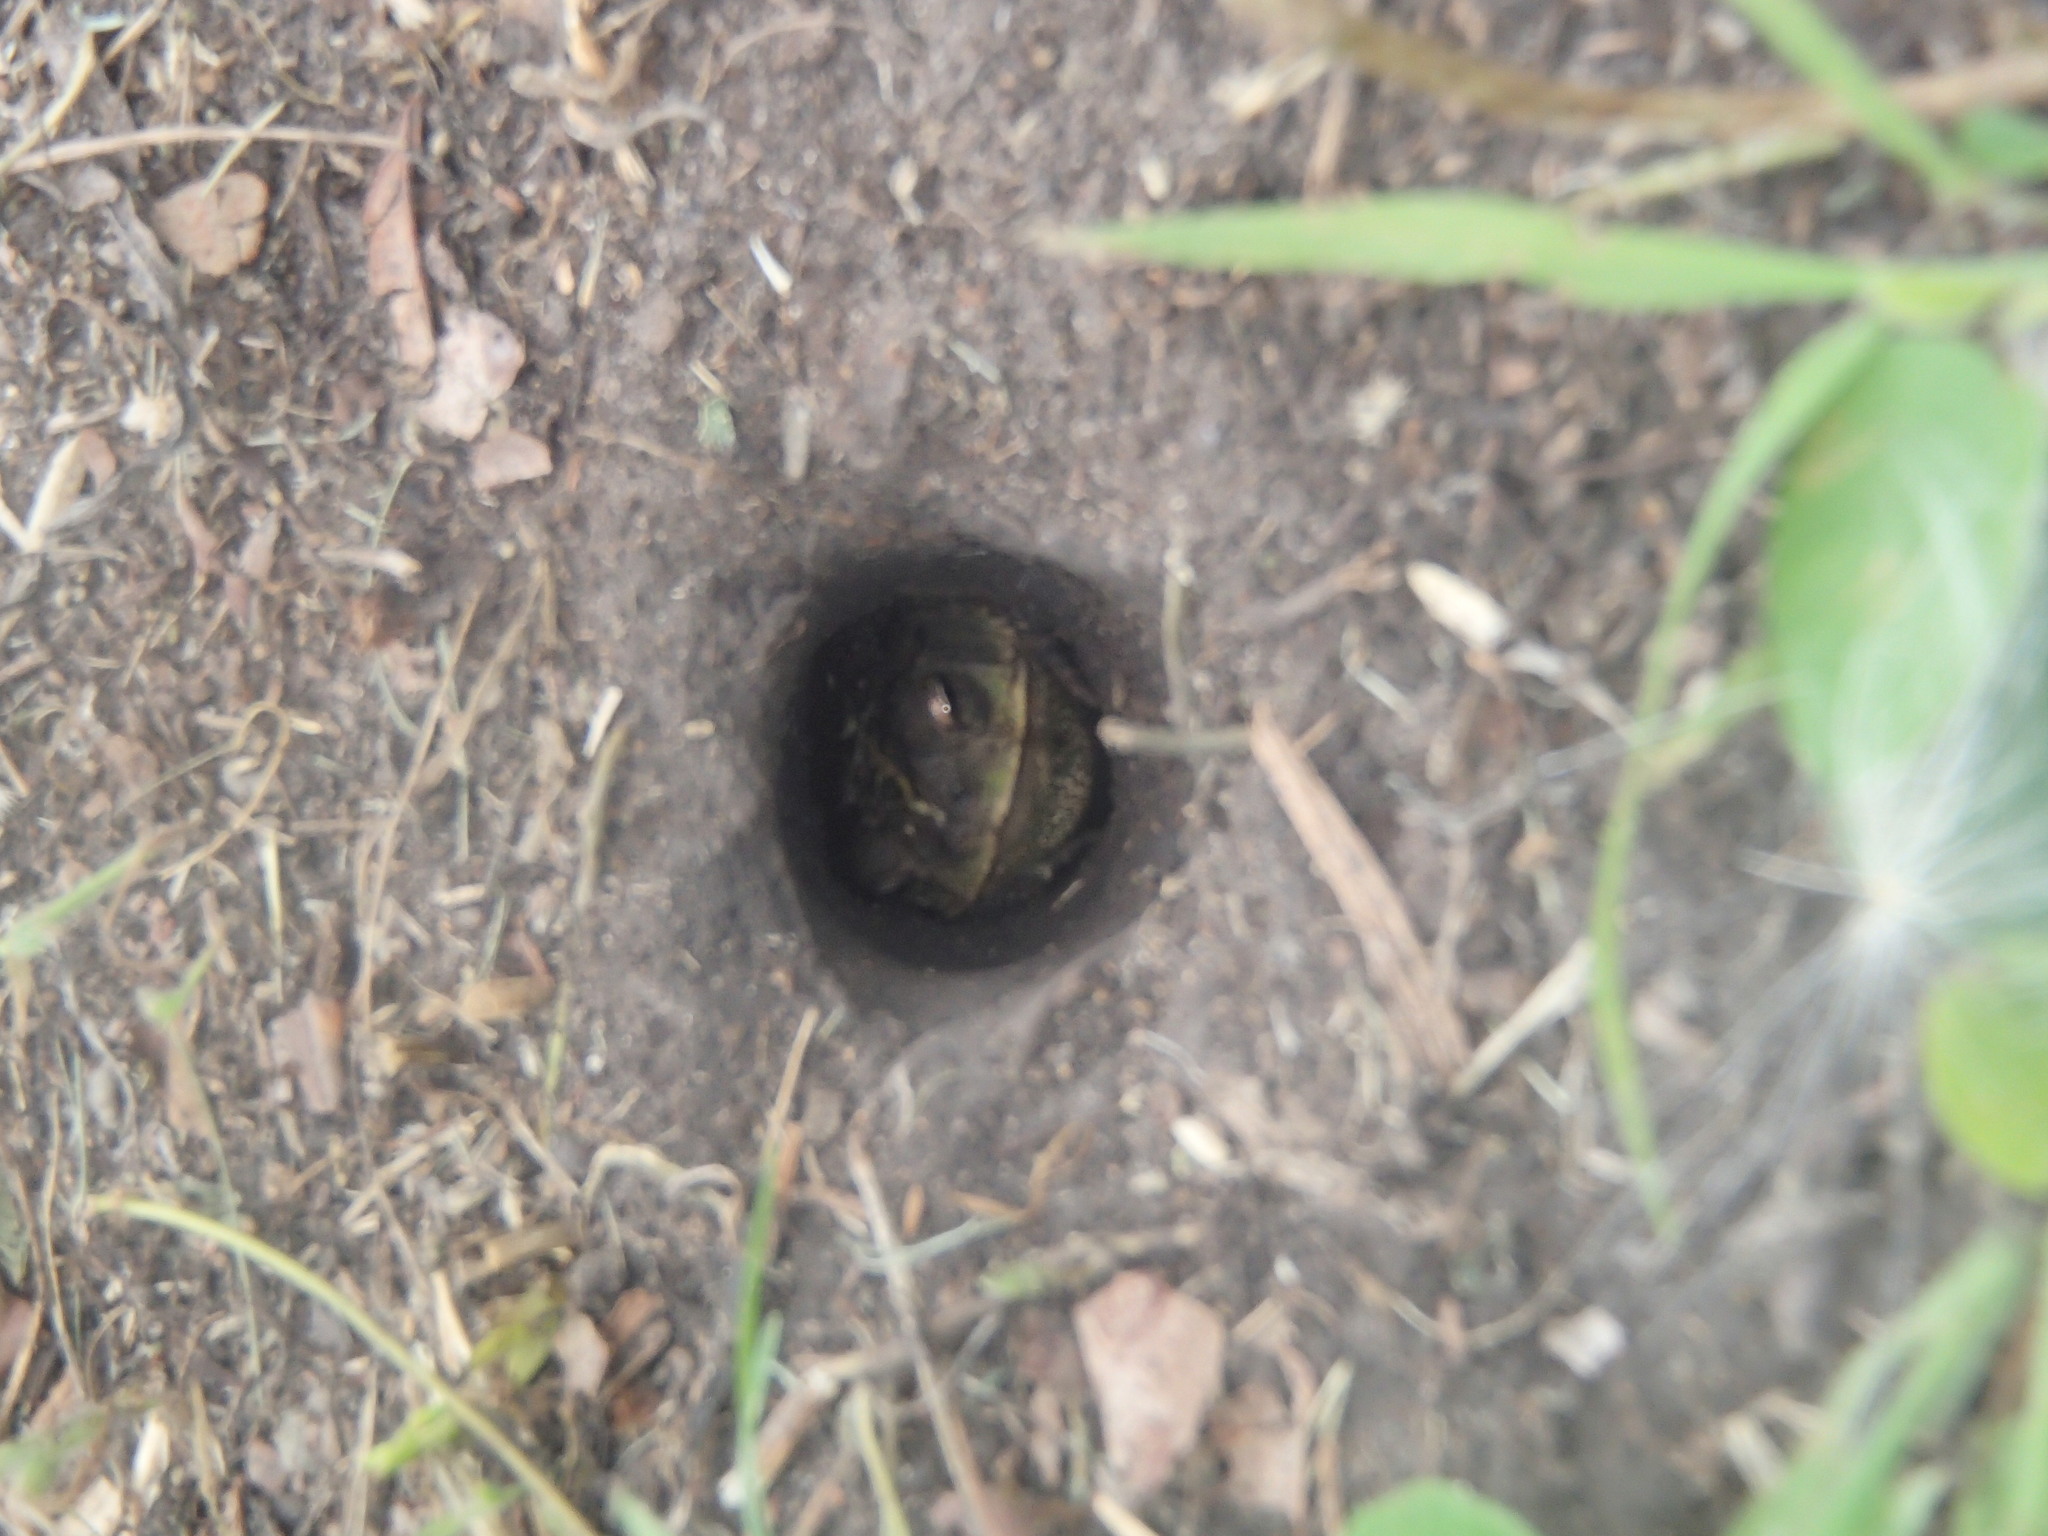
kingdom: Animalia
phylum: Chordata
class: Amphibia
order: Anura
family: Bufonidae
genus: Rhinella
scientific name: Rhinella dorbignyi
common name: D´orbigny’s toad
